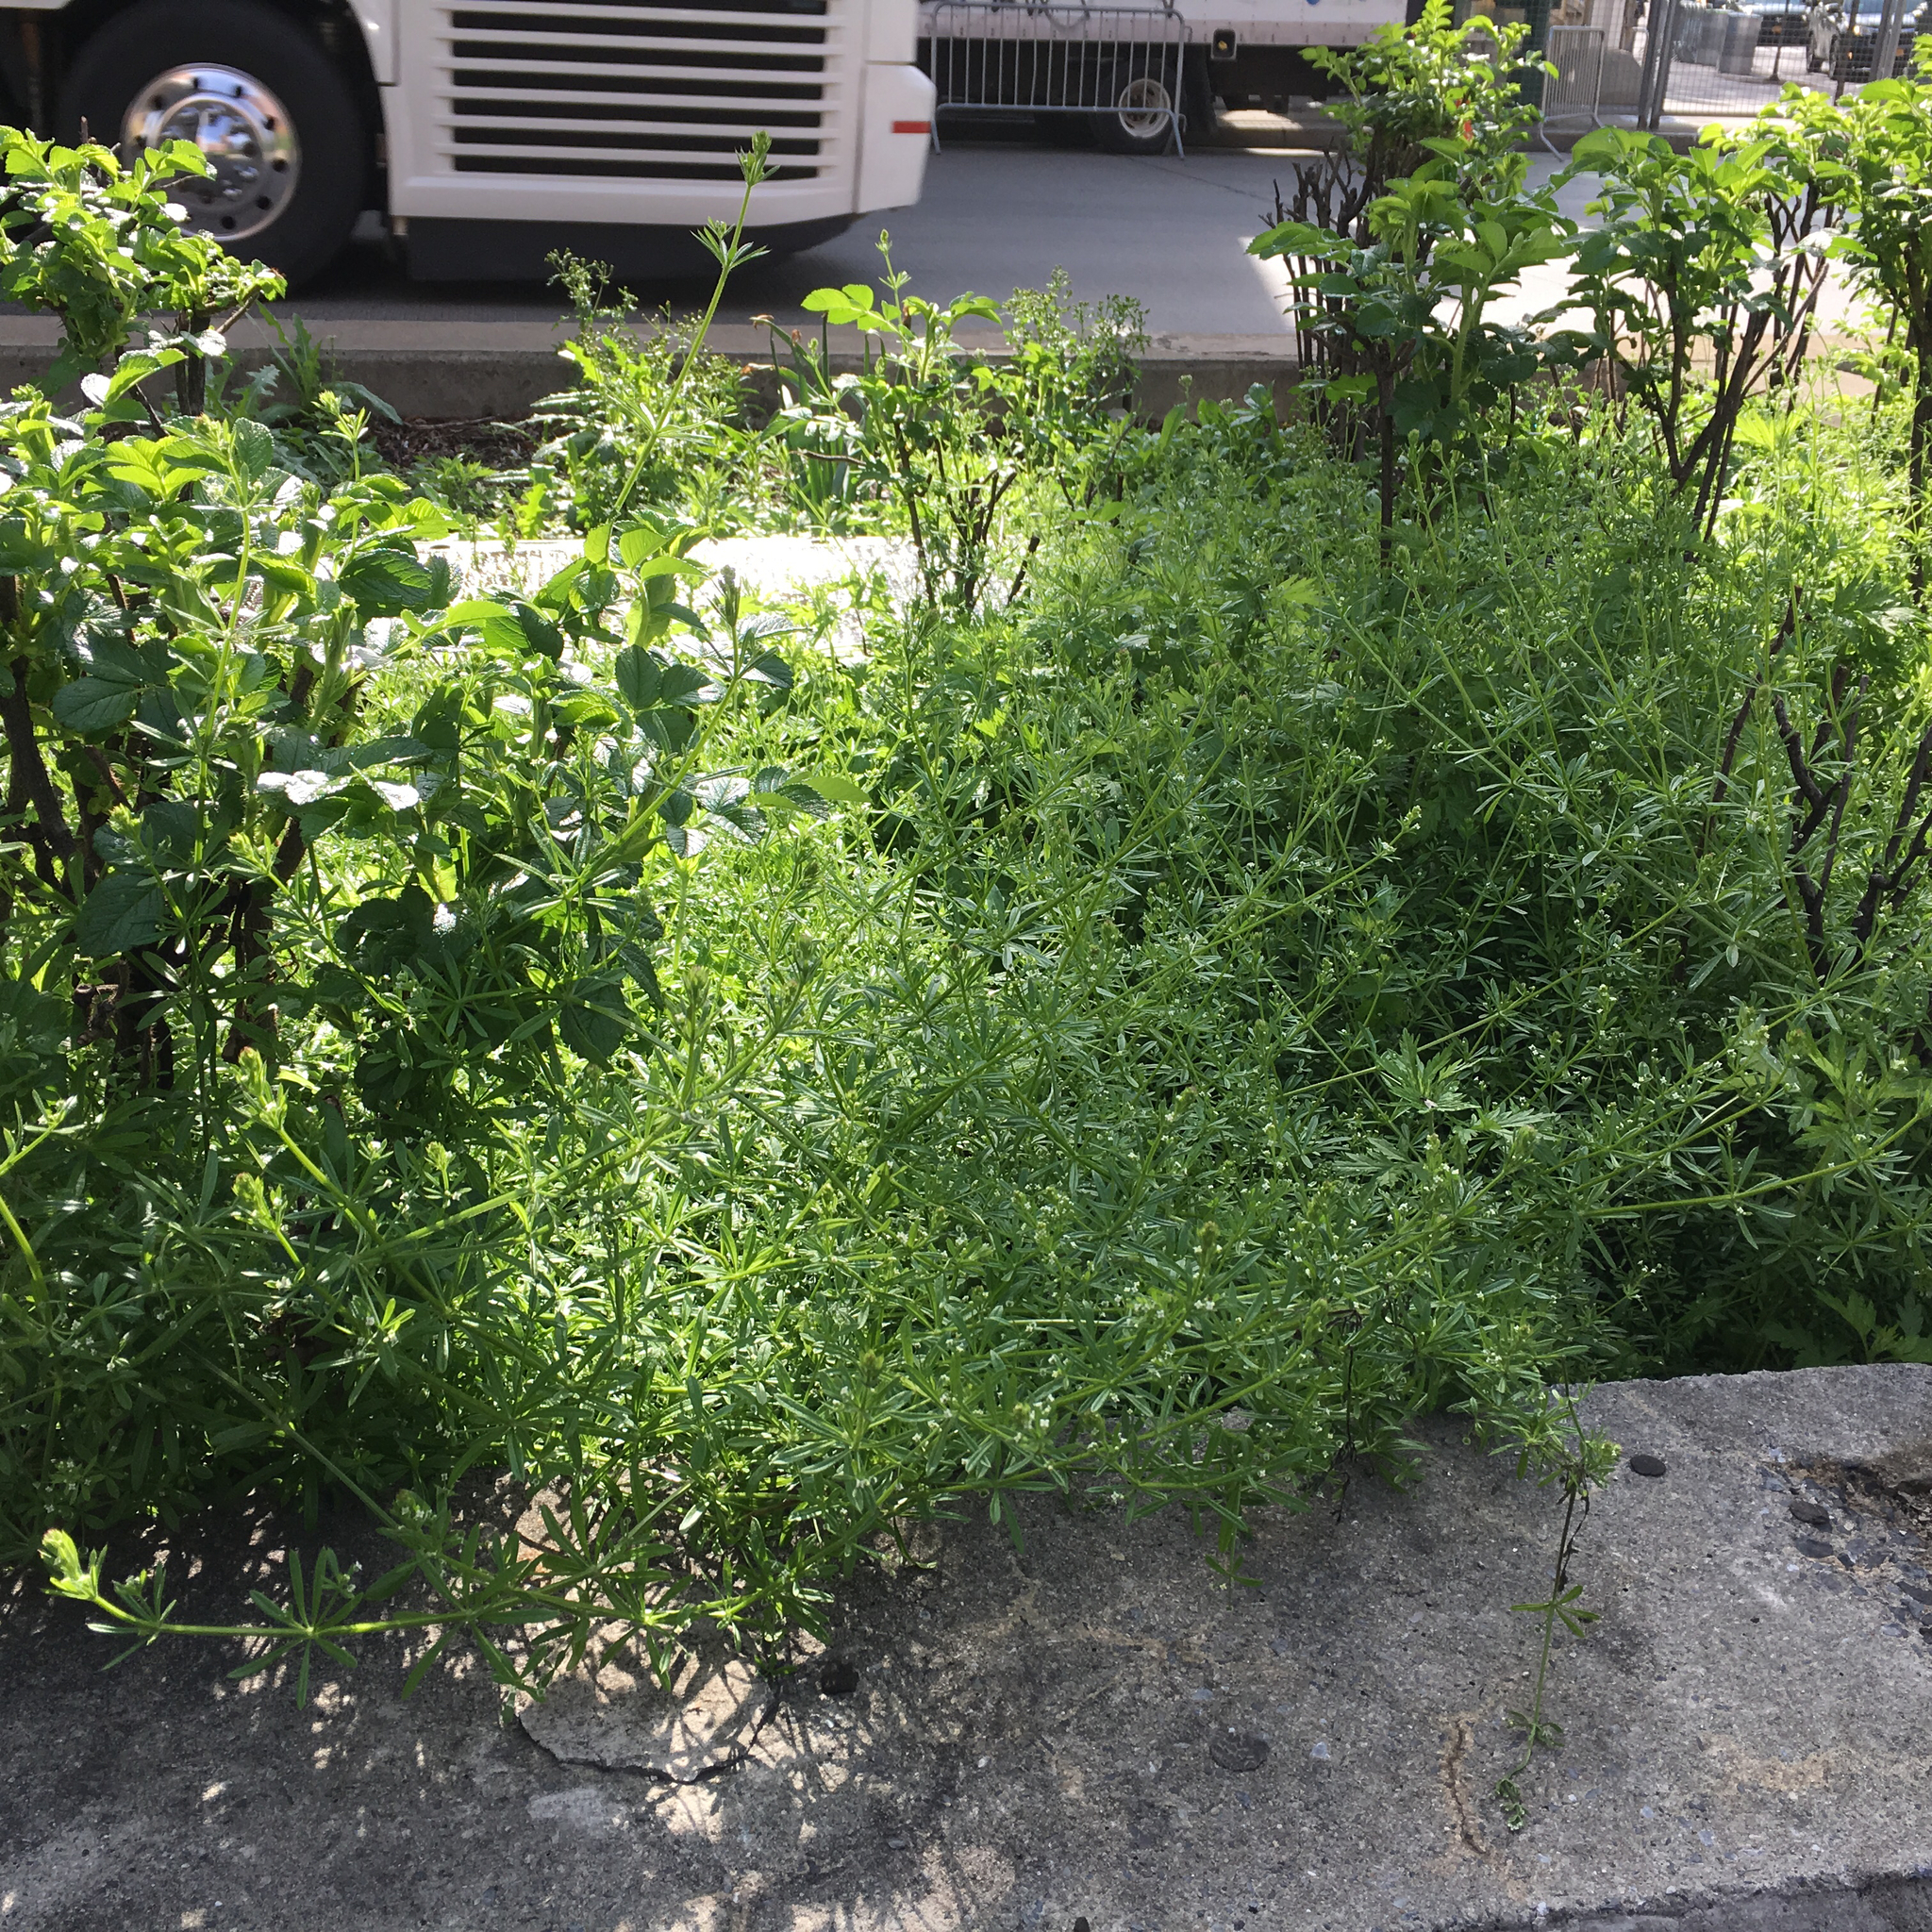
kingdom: Plantae
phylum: Tracheophyta
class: Magnoliopsida
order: Gentianales
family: Rubiaceae
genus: Galium
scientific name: Galium aparine
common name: Cleavers
